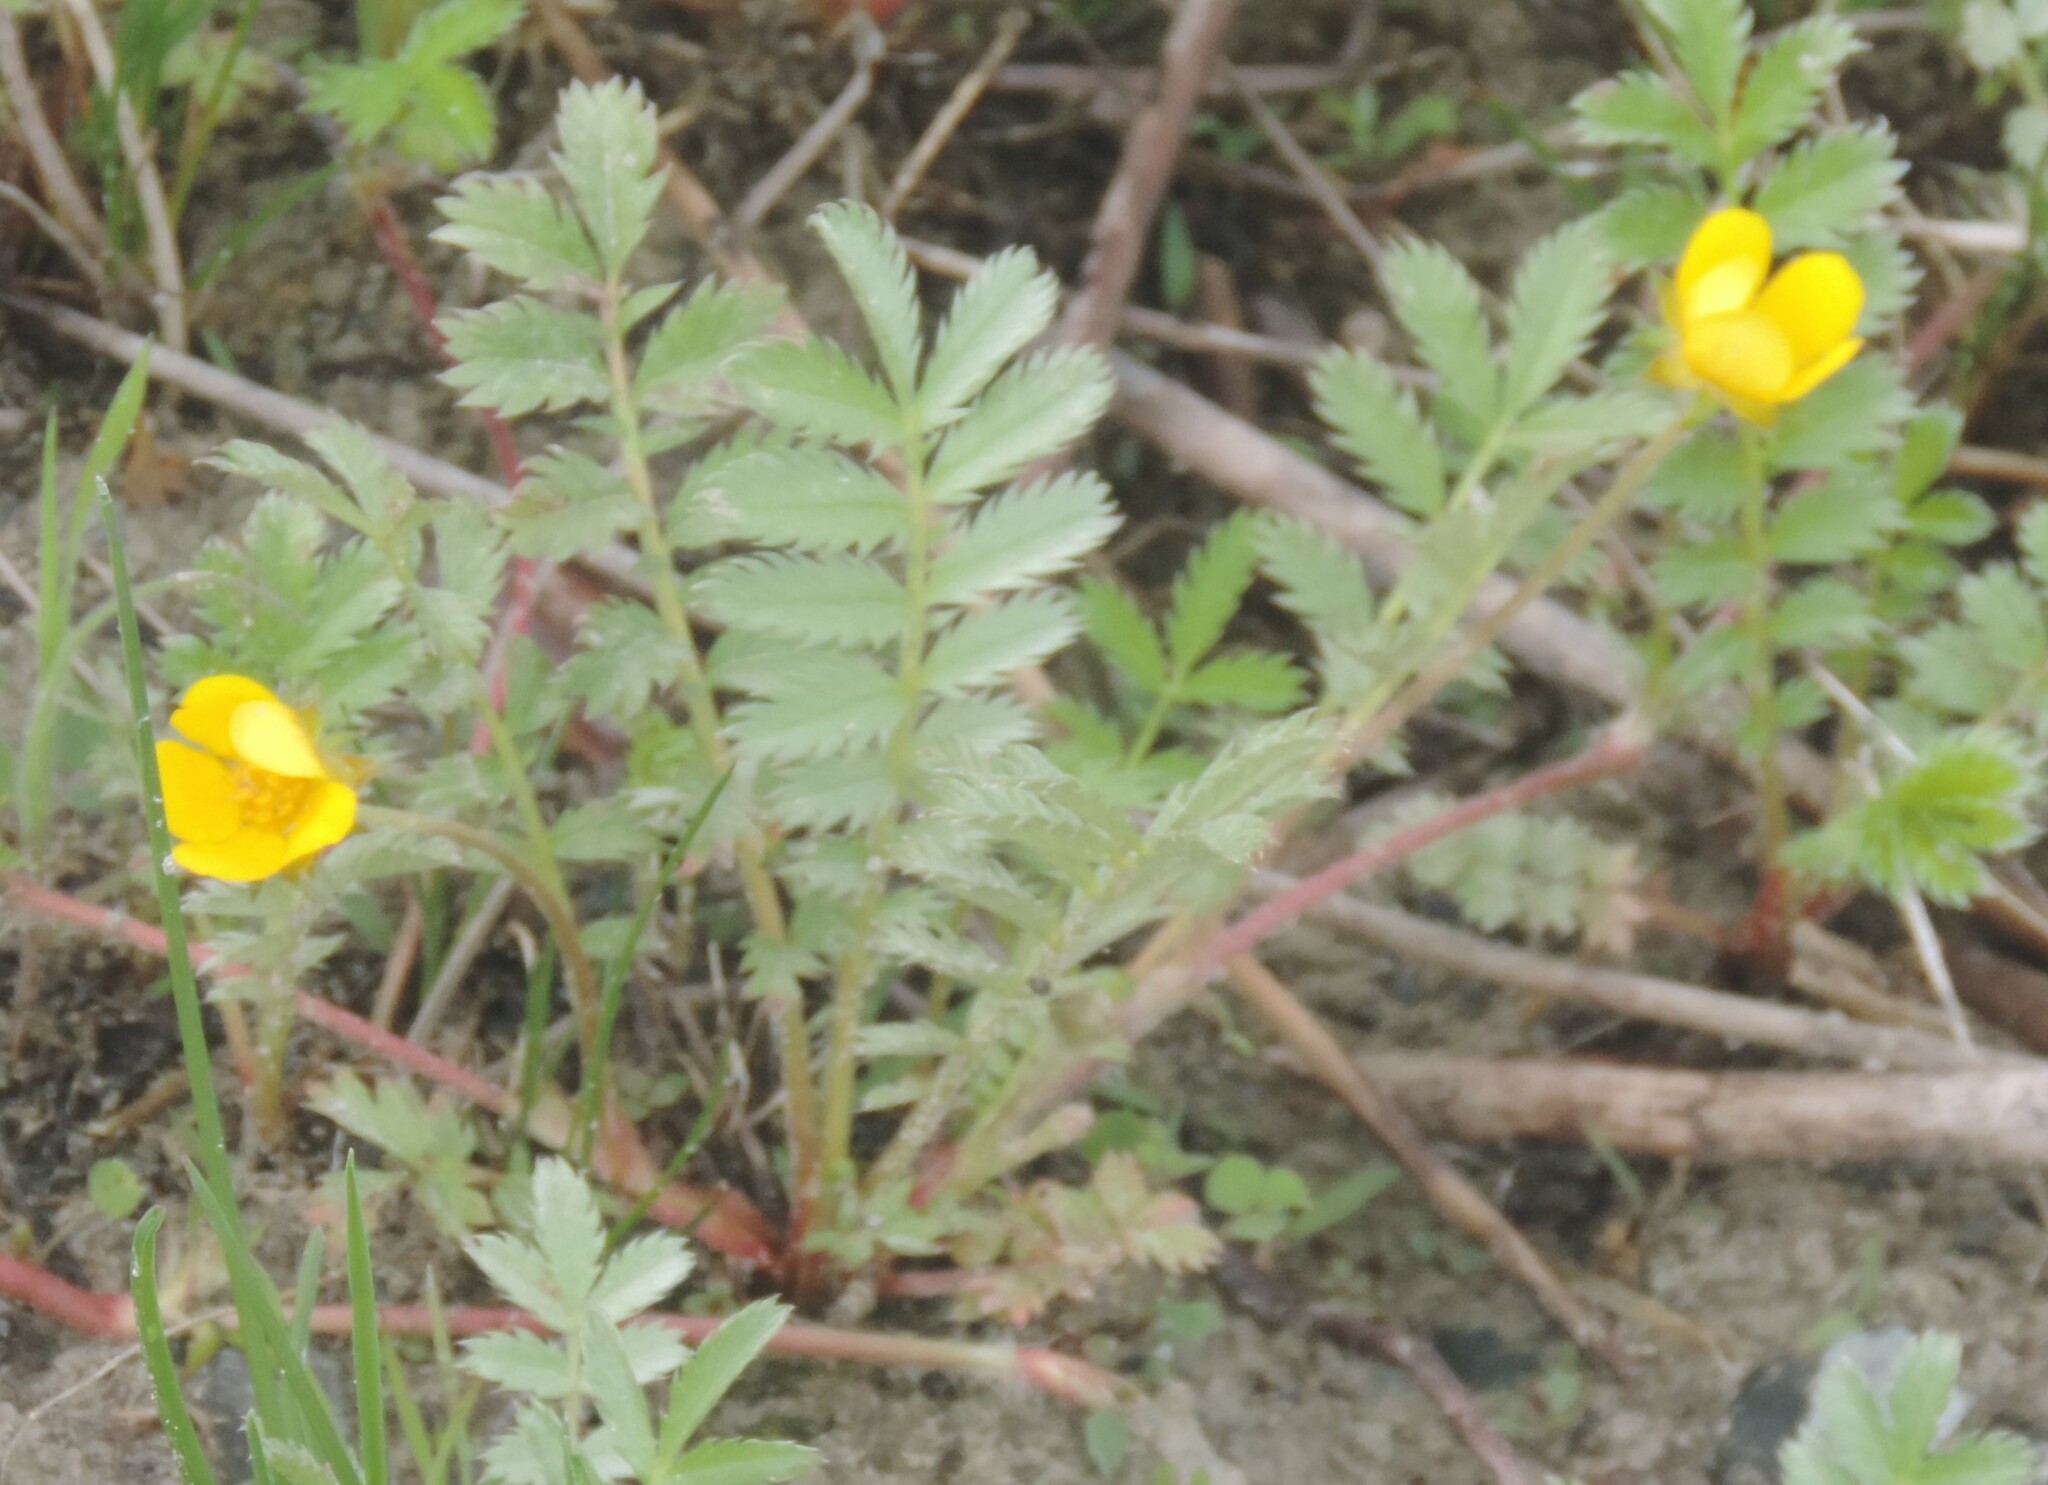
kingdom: Plantae
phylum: Tracheophyta
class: Magnoliopsida
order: Rosales
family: Rosaceae
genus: Argentina
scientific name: Argentina anserina
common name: Common silverweed
